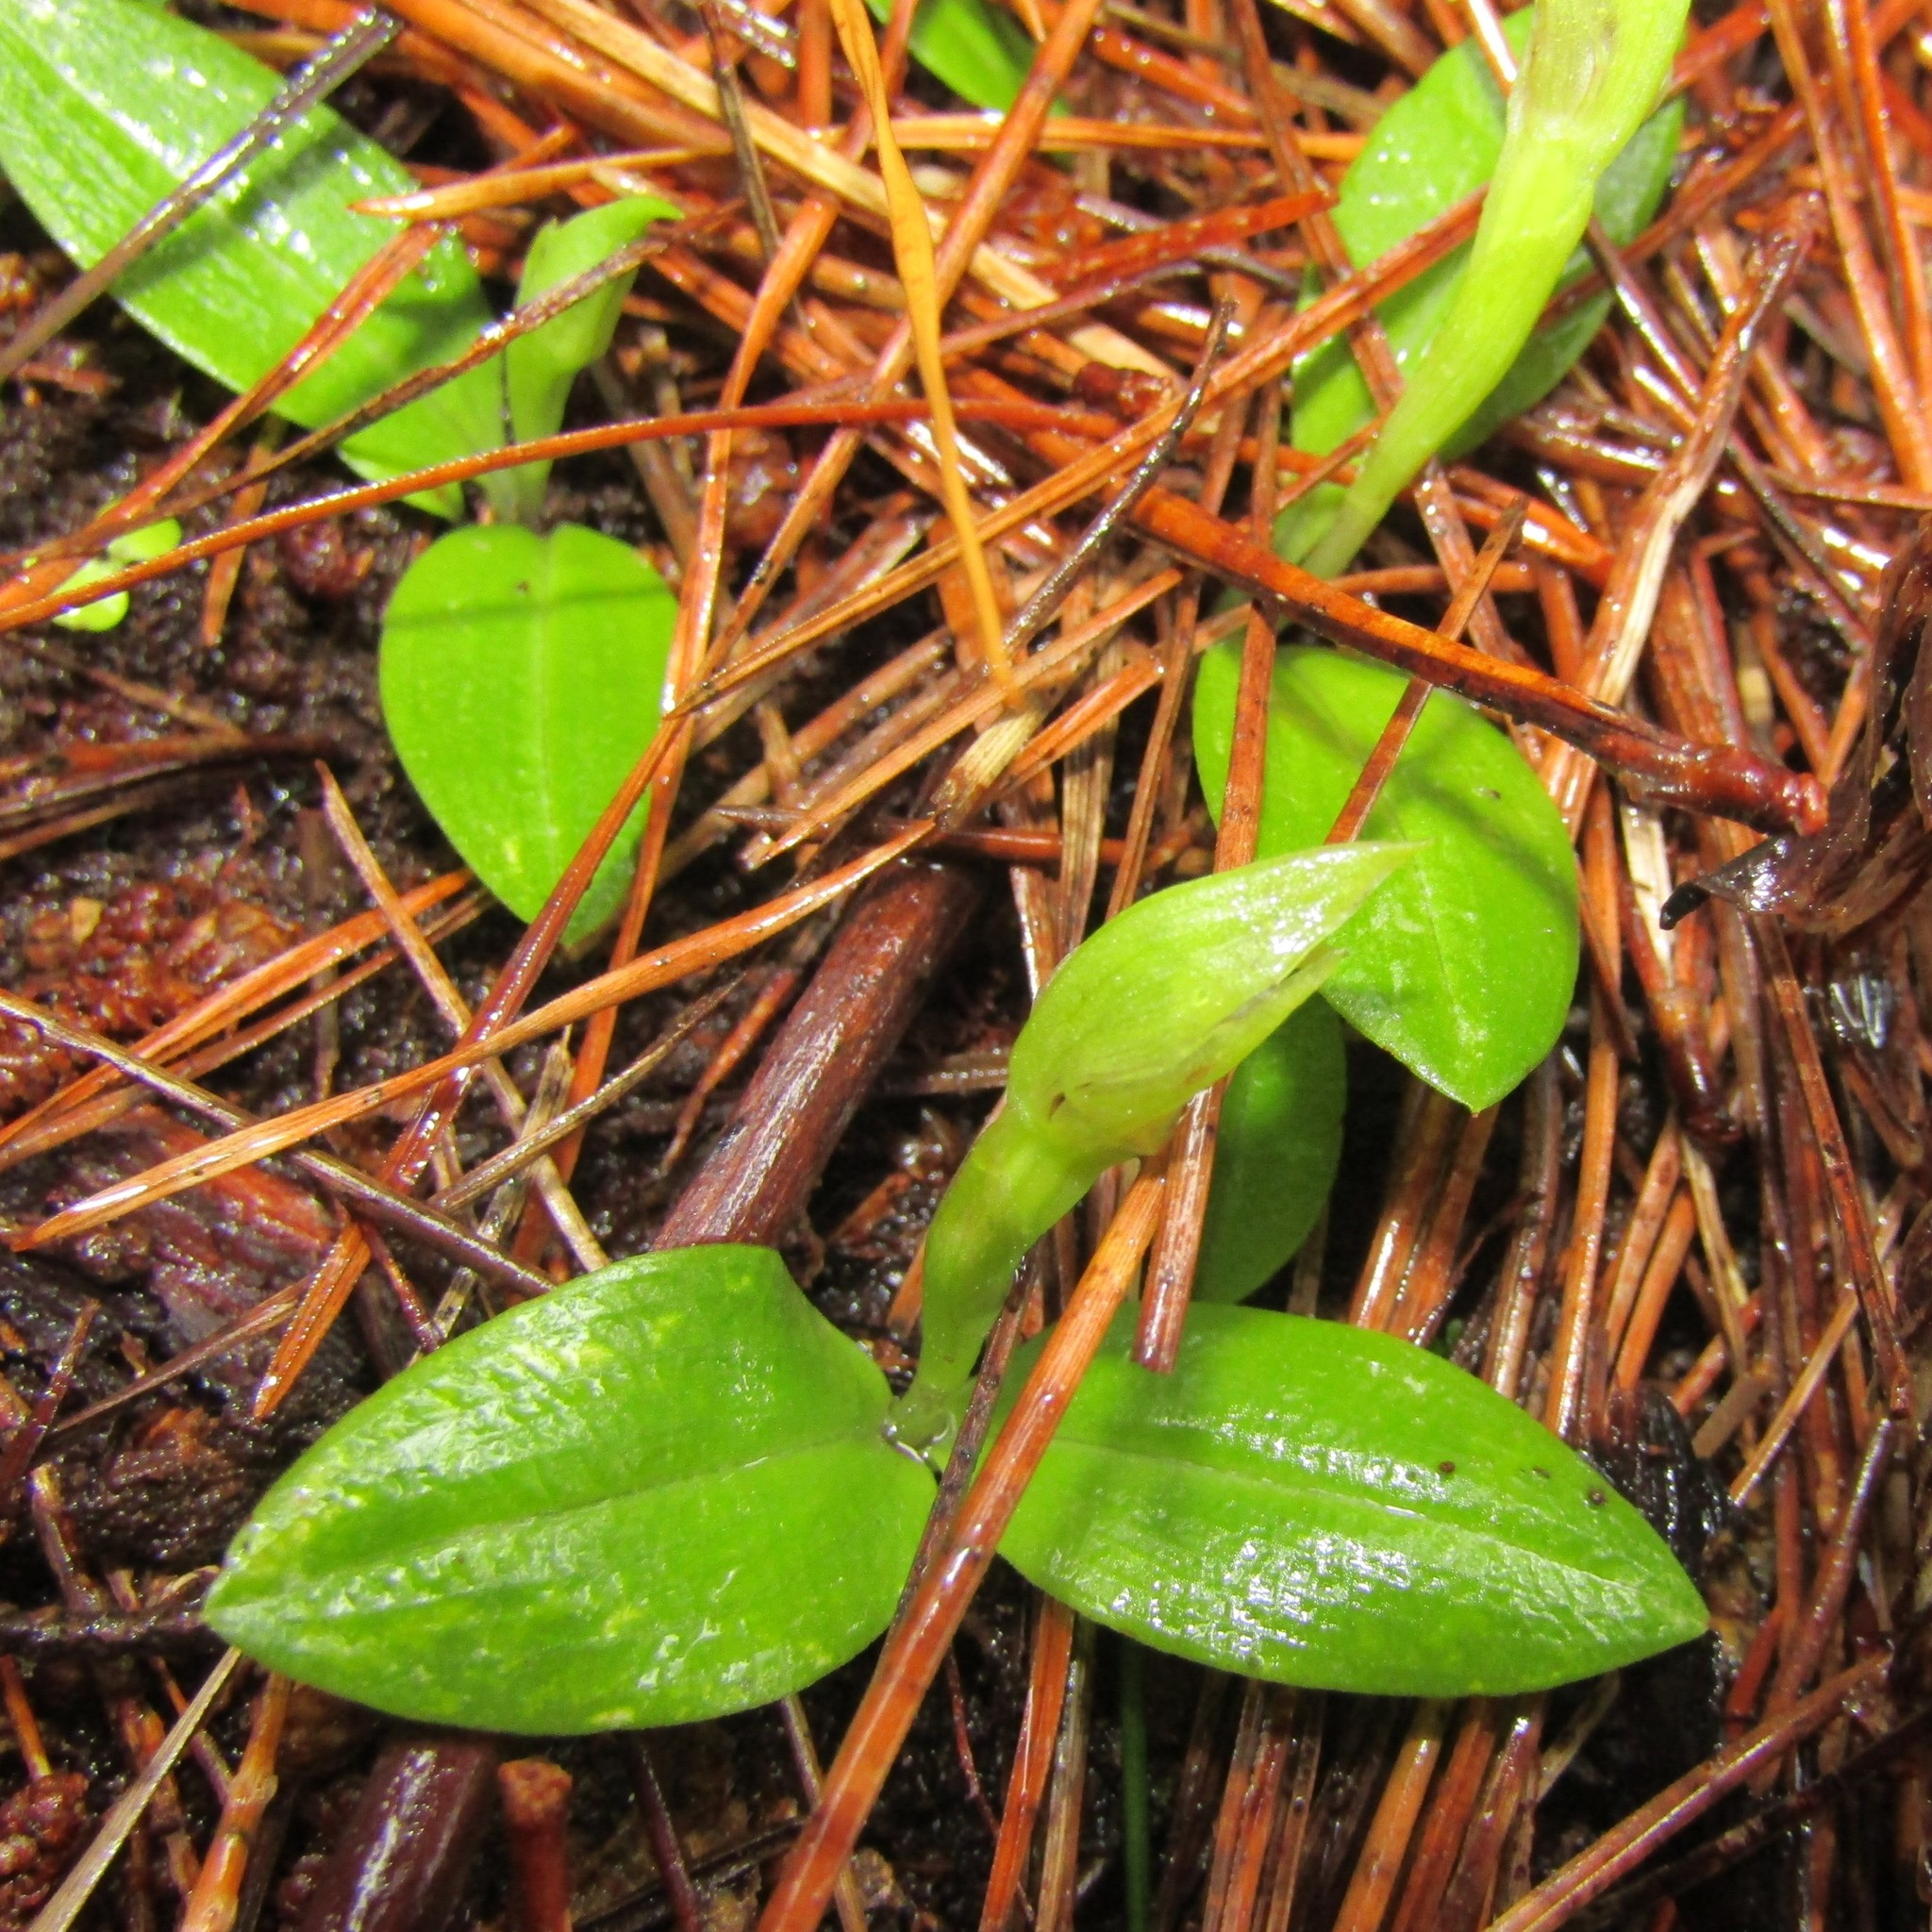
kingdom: Plantae
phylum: Tracheophyta
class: Liliopsida
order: Asparagales
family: Orchidaceae
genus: Chiloglottis
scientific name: Chiloglottis cornuta
